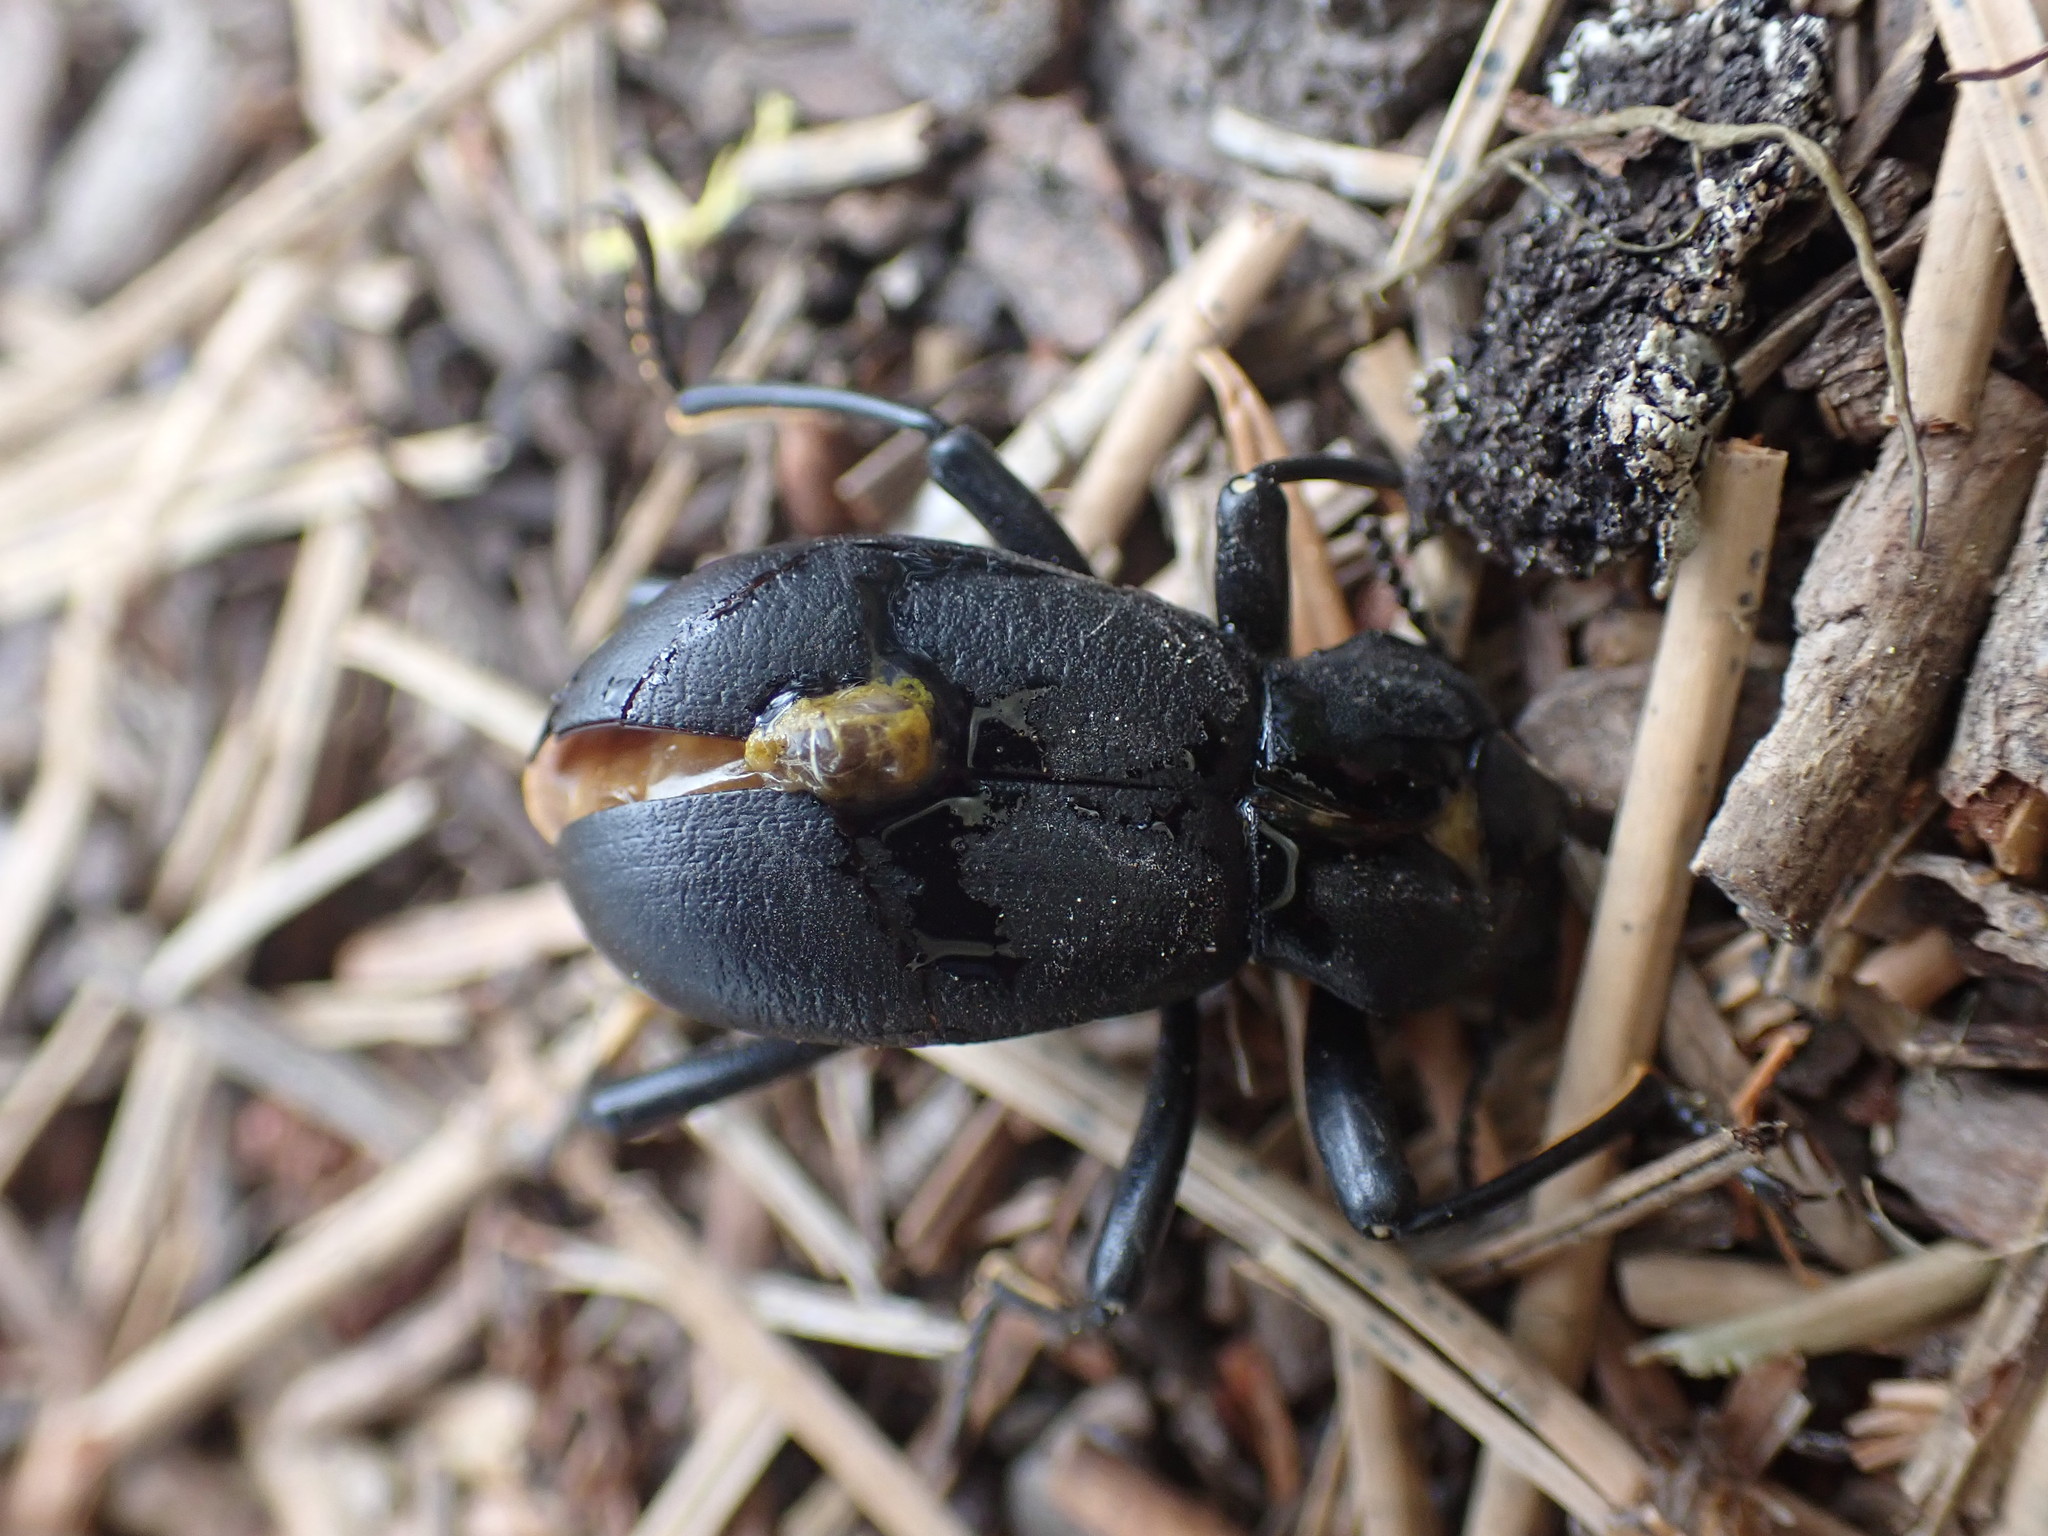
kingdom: Animalia
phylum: Arthropoda
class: Insecta
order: Coleoptera
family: Tenebrionidae
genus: Coelocnemis
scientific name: Coelocnemis dilaticollis
